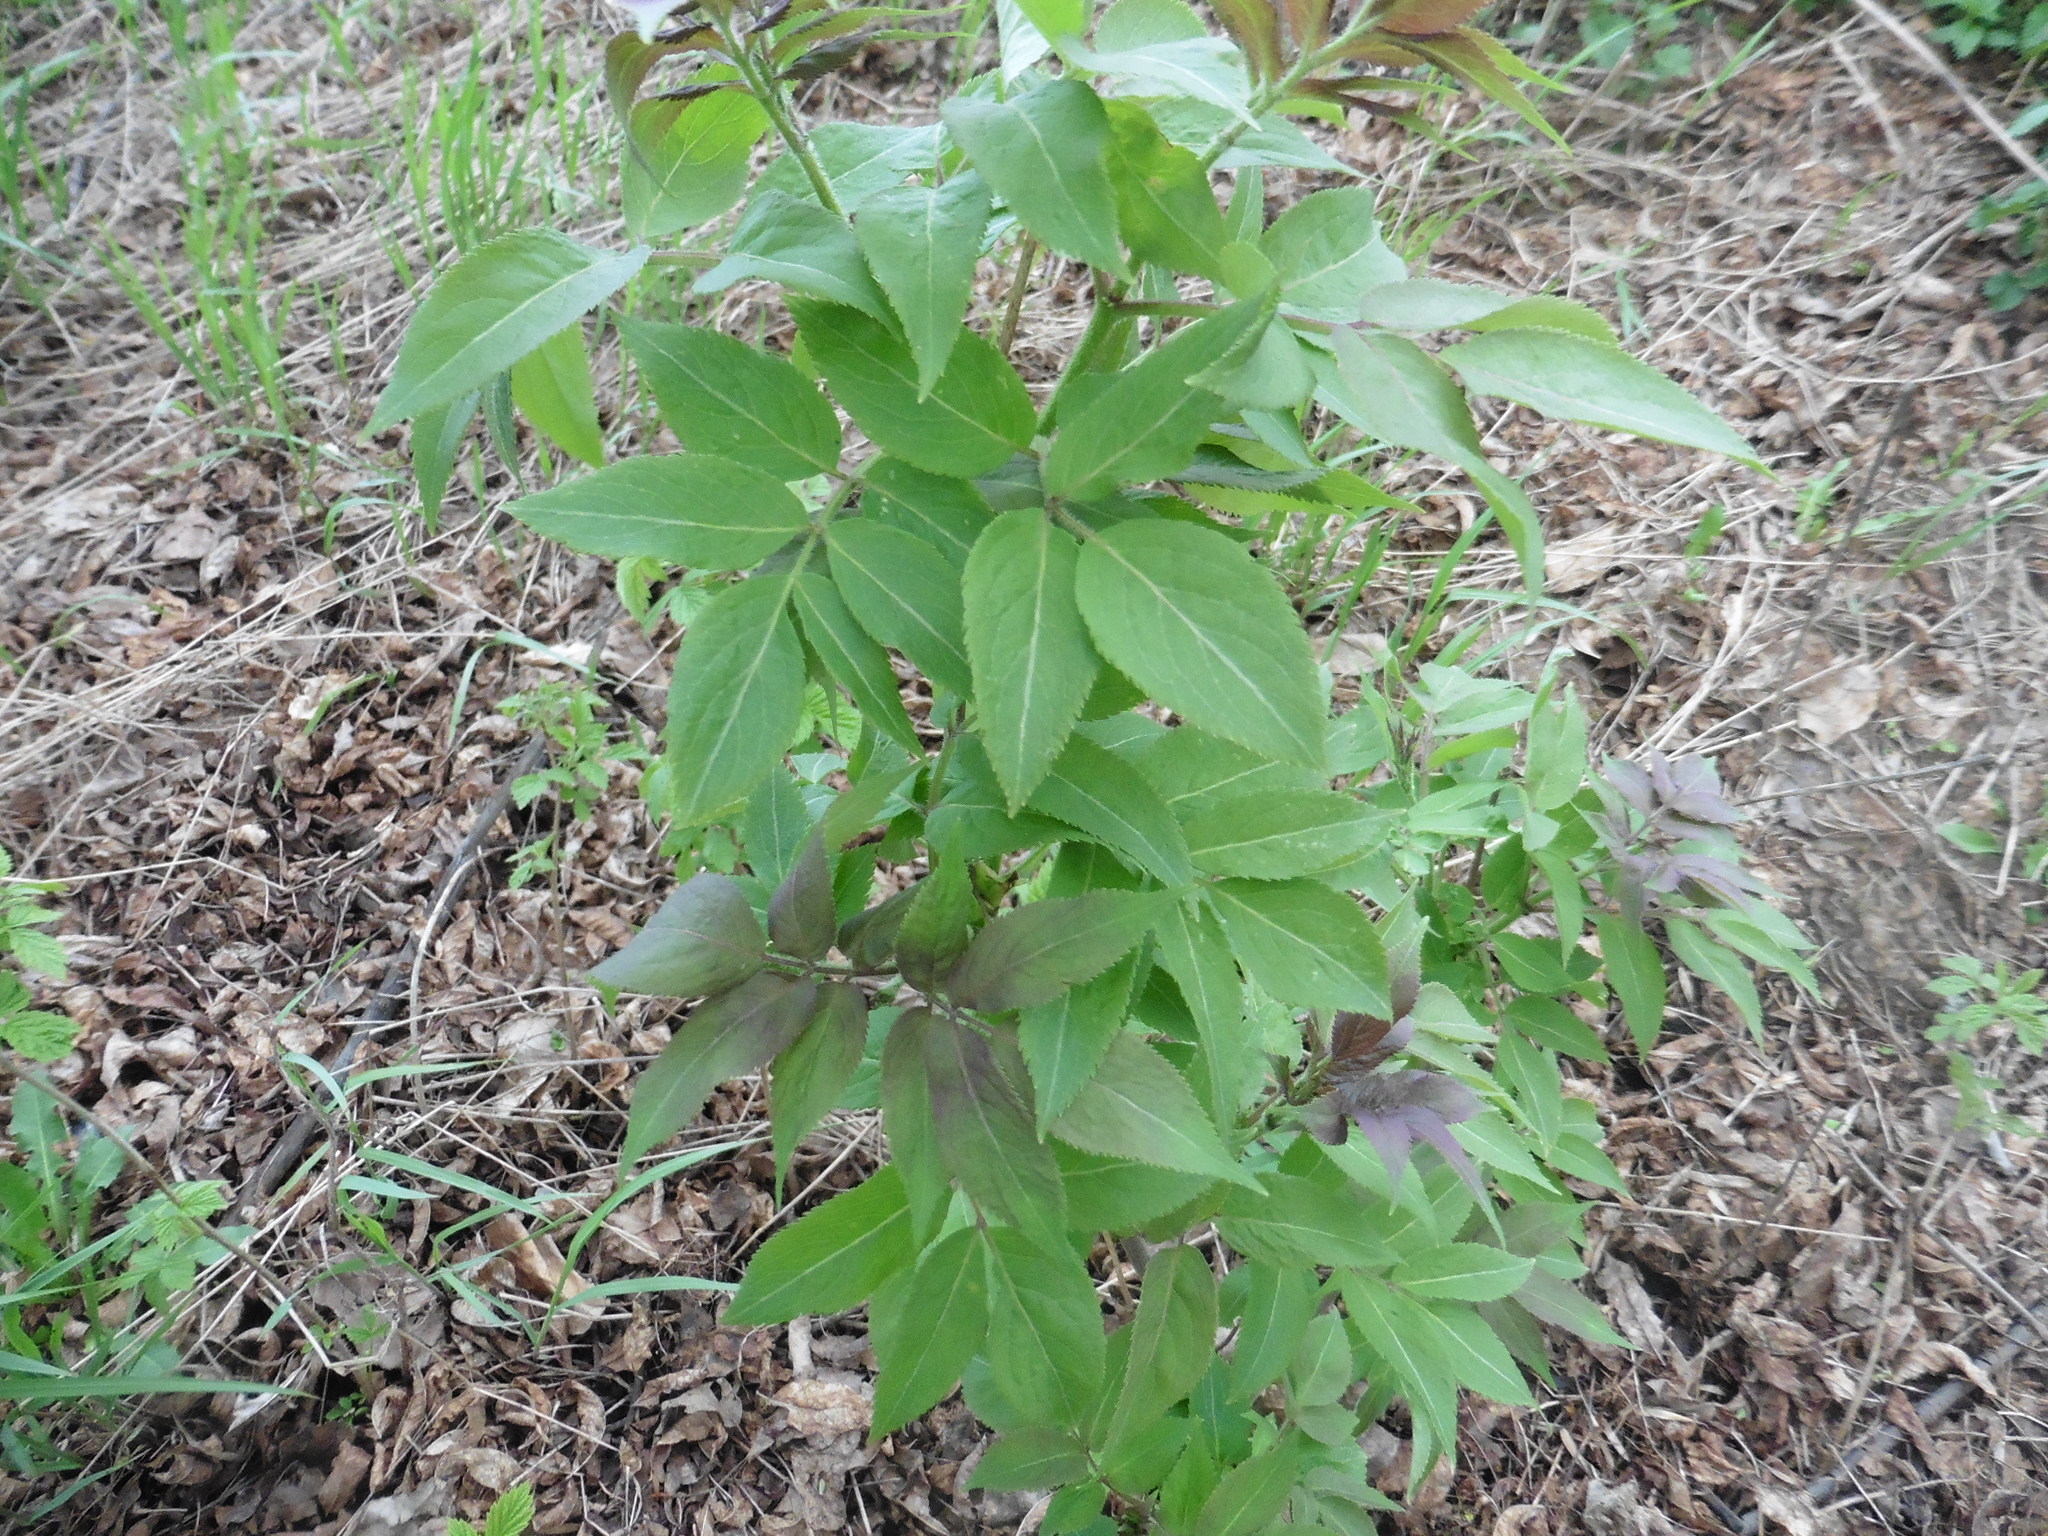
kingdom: Plantae
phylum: Tracheophyta
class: Magnoliopsida
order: Dipsacales
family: Viburnaceae
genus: Sambucus
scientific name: Sambucus racemosa
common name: Red-berried elder
